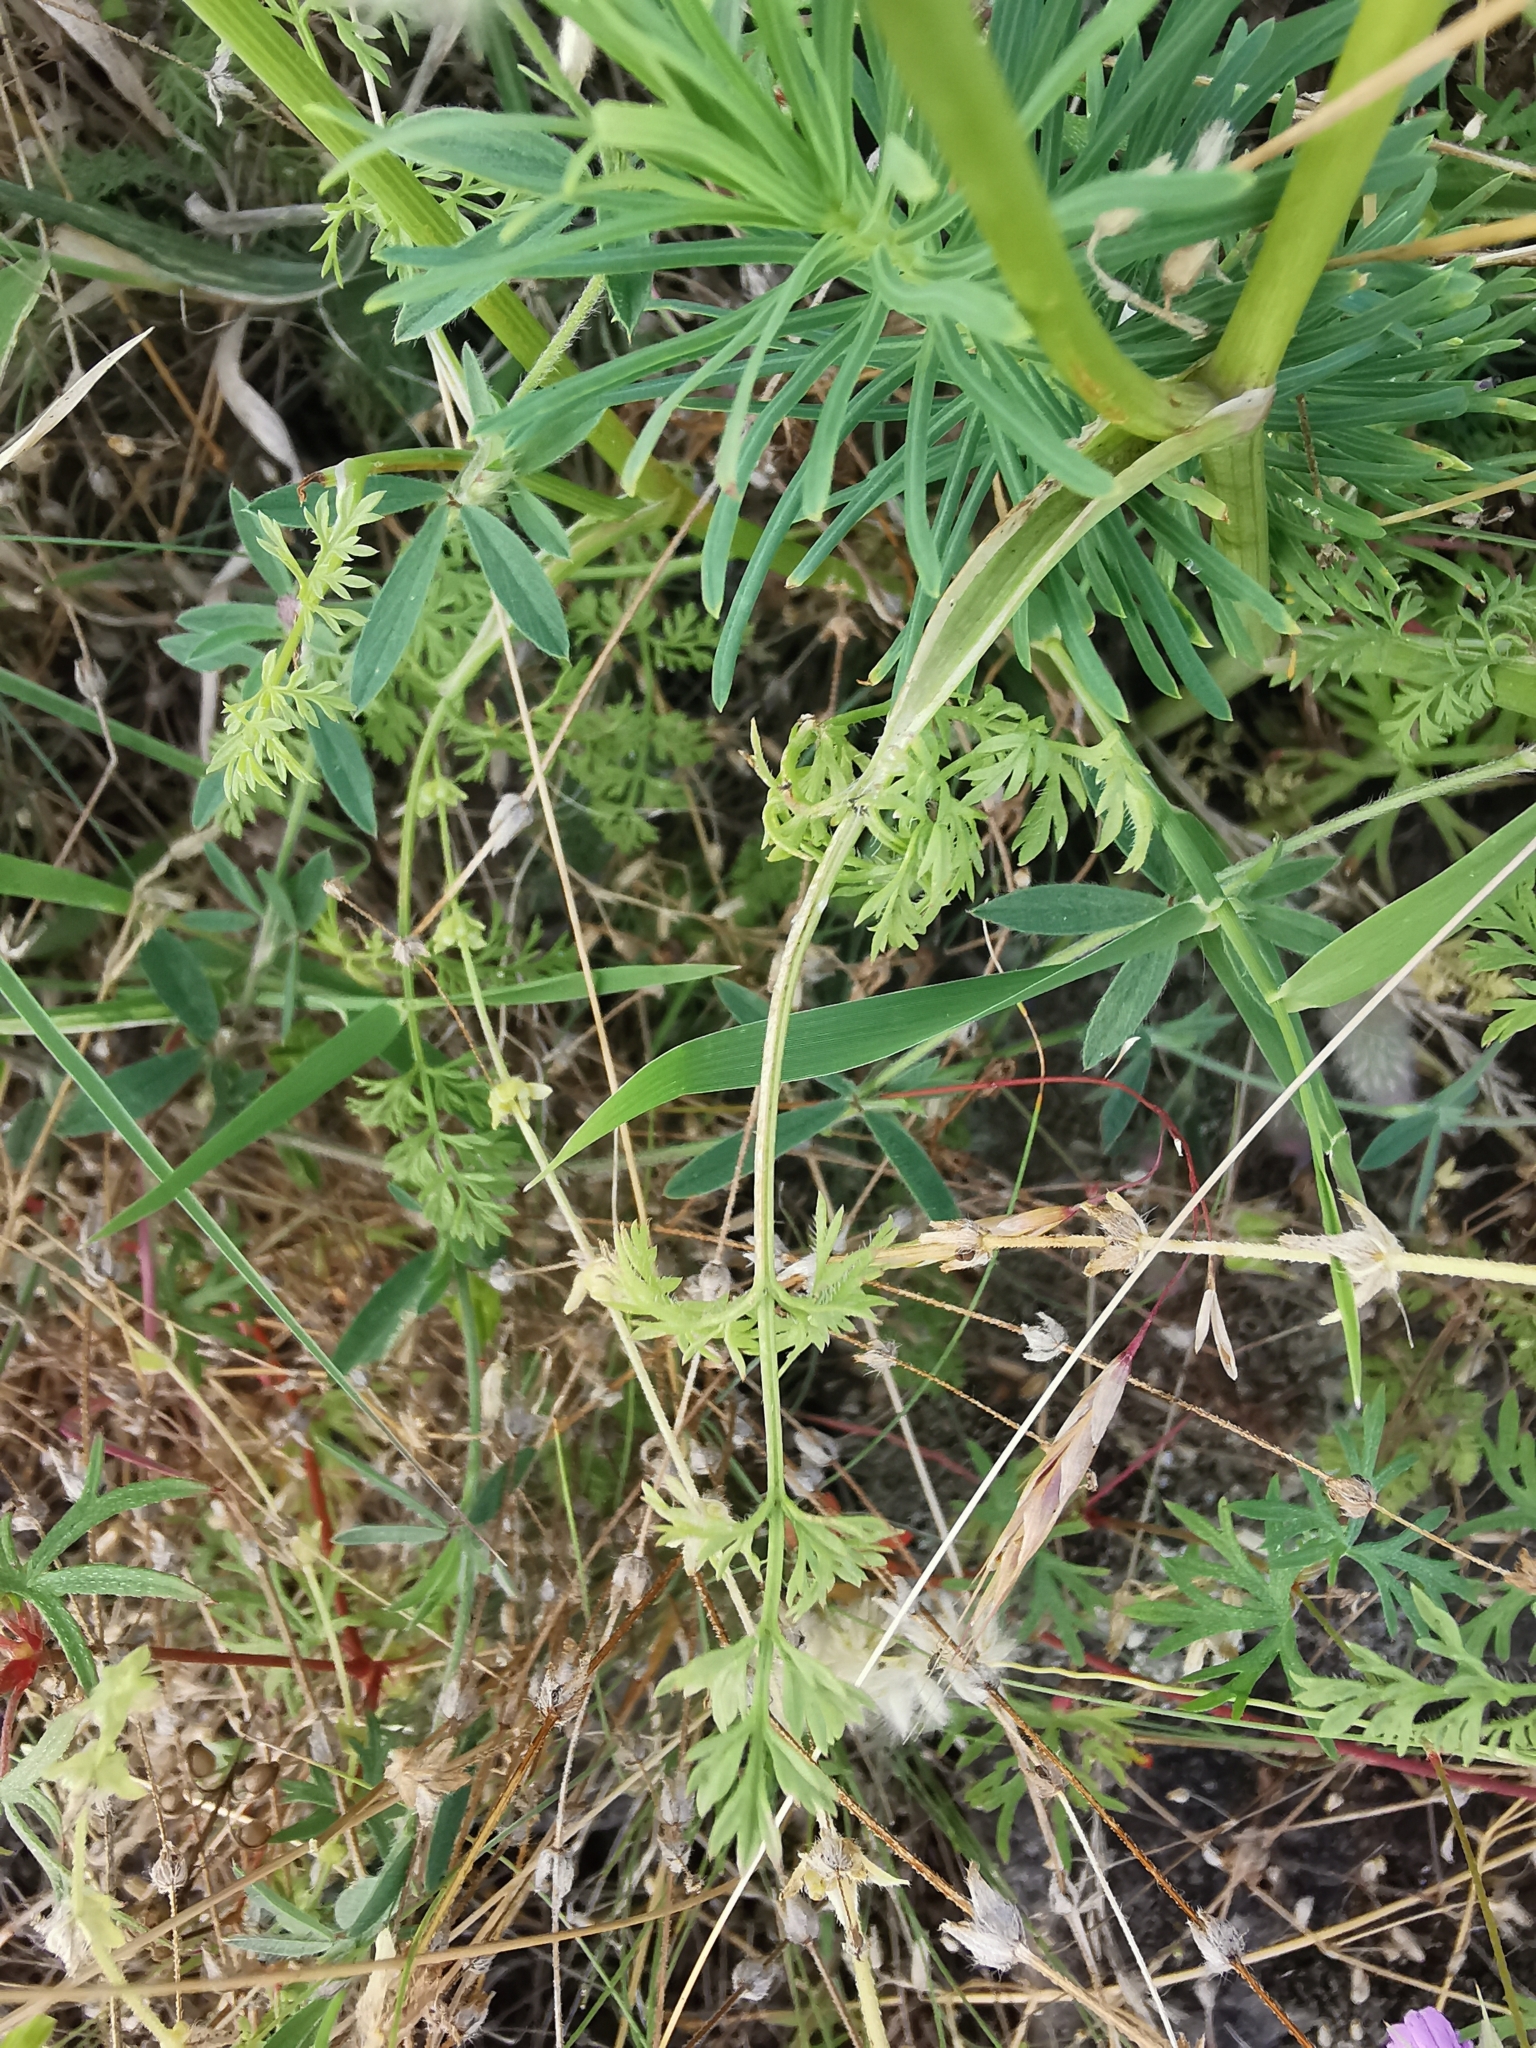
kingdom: Plantae
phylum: Tracheophyta
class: Magnoliopsida
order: Apiales
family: Apiaceae
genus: Orlaya
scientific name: Orlaya grandiflora
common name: White lace flower
